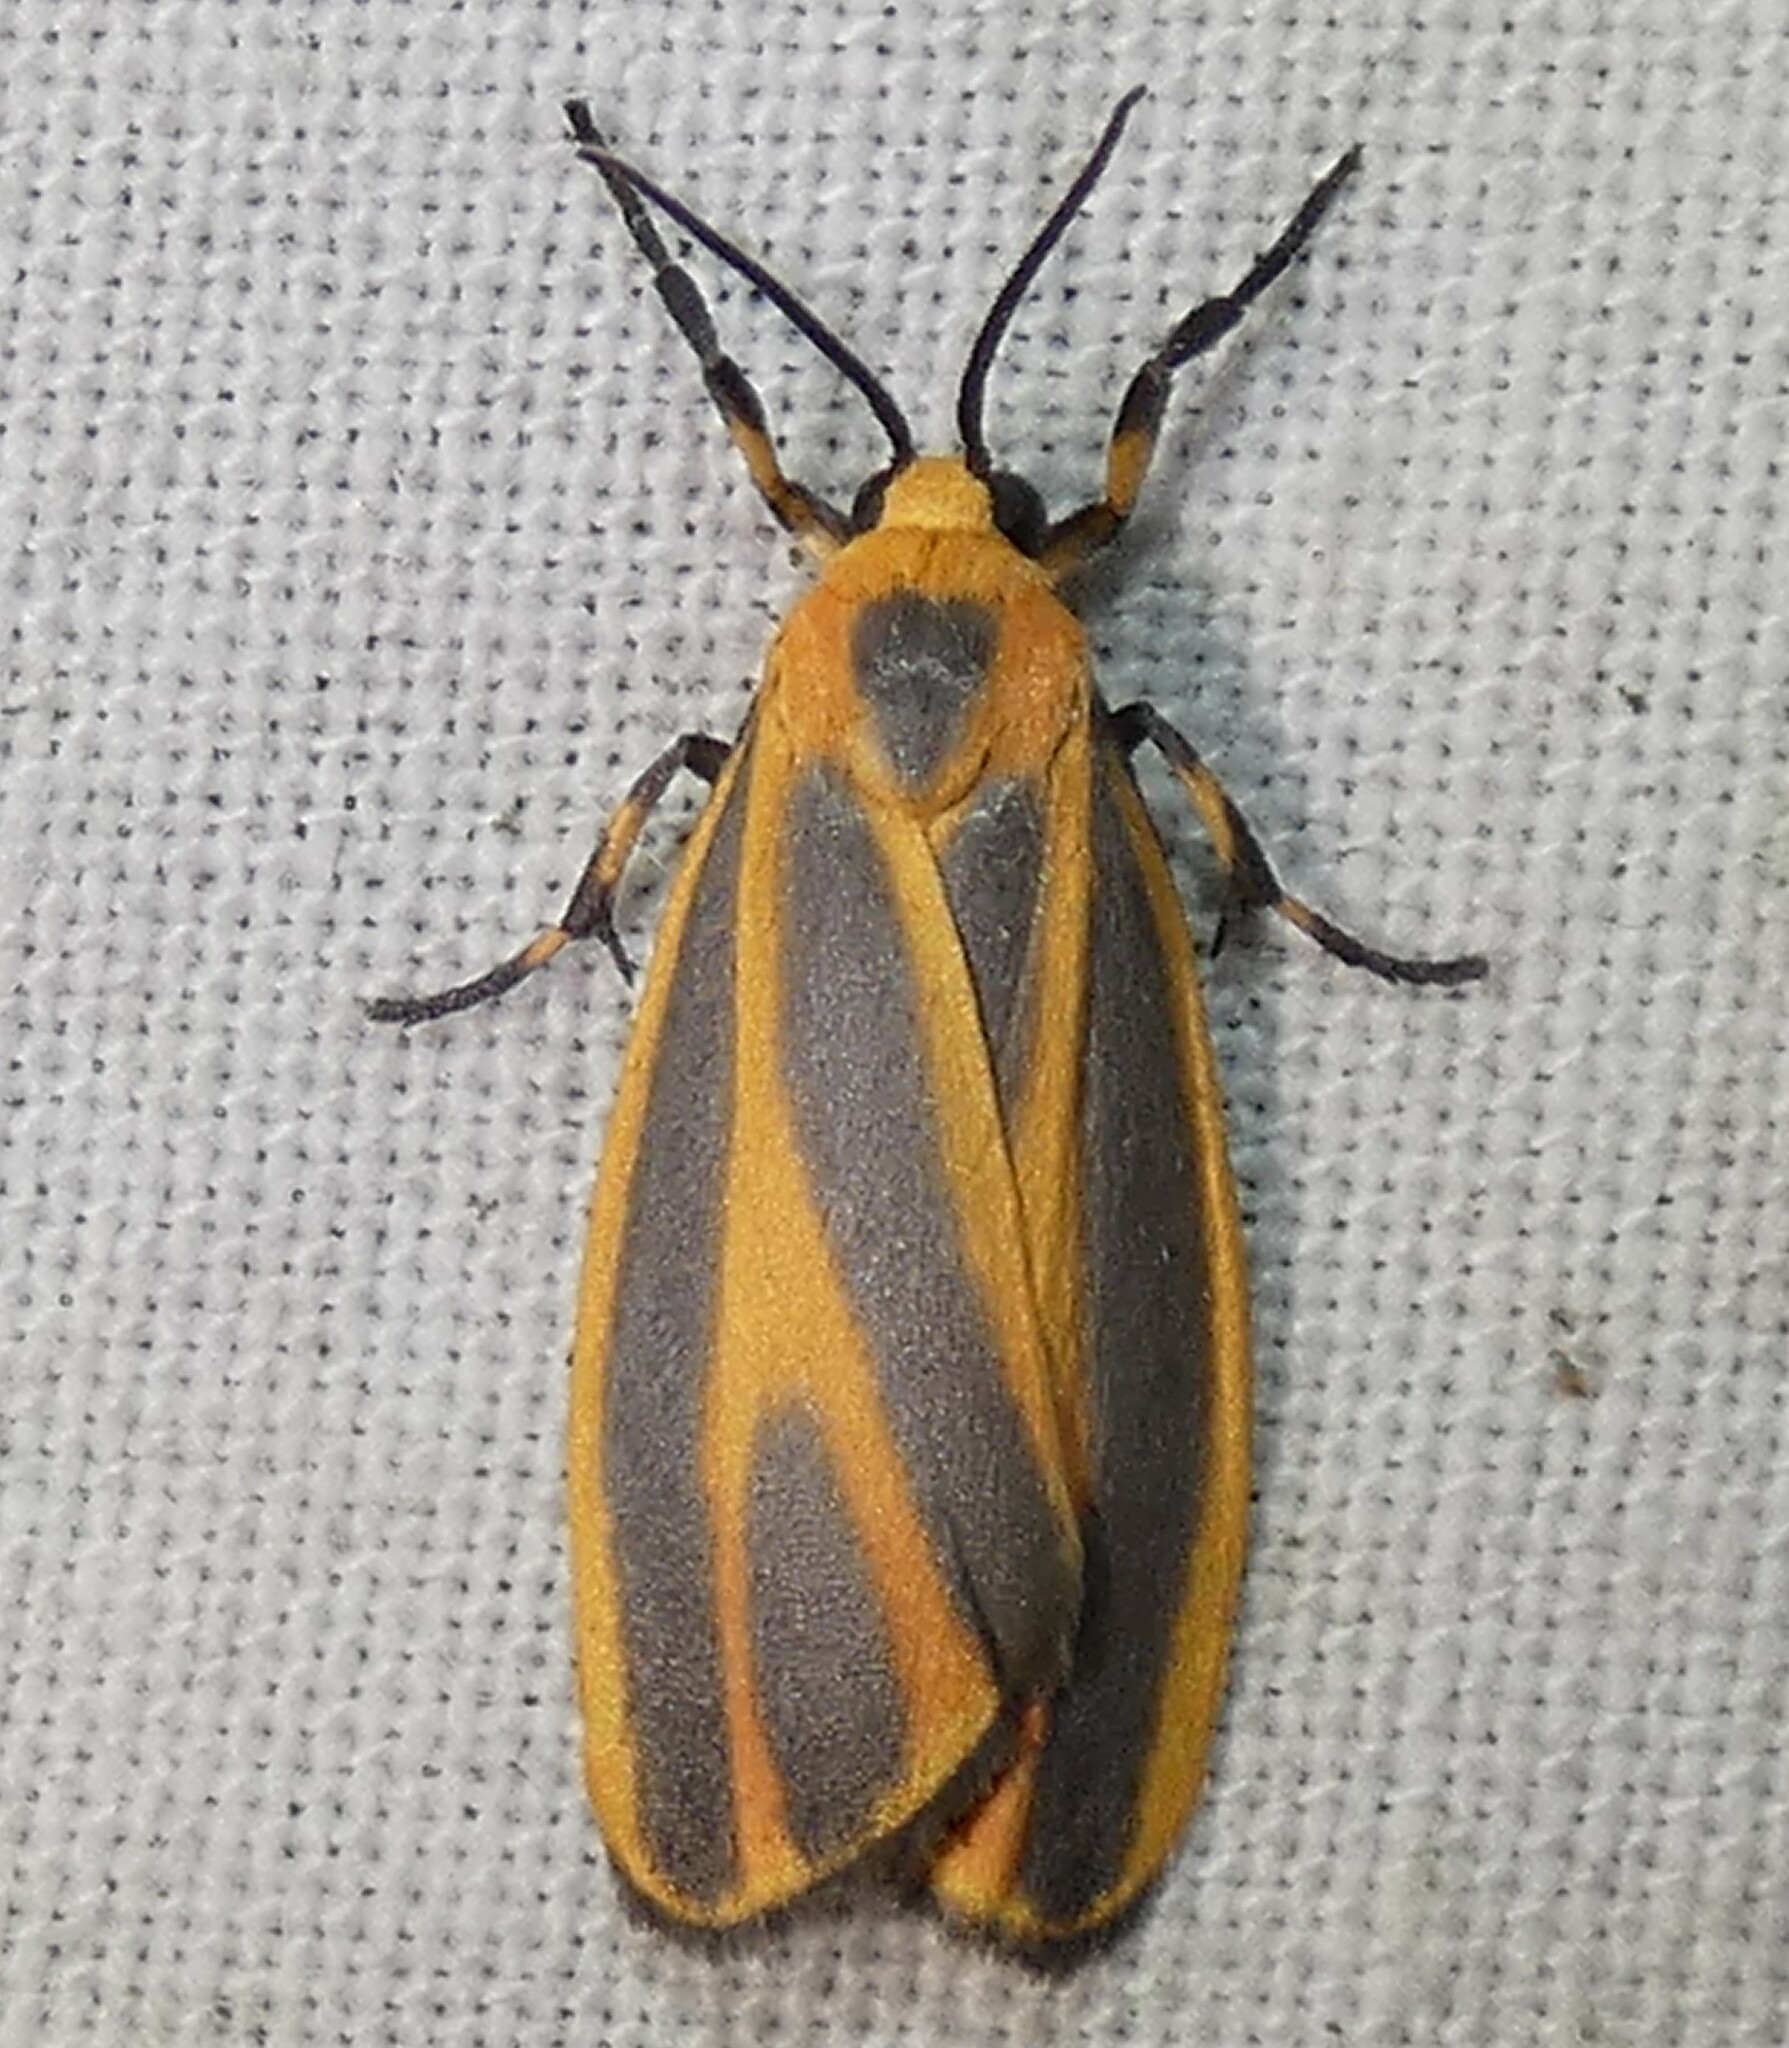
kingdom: Animalia
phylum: Arthropoda
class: Insecta
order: Lepidoptera
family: Erebidae
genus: Hypoprepia
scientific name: Hypoprepia fucosa
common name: Painted lichen moth
